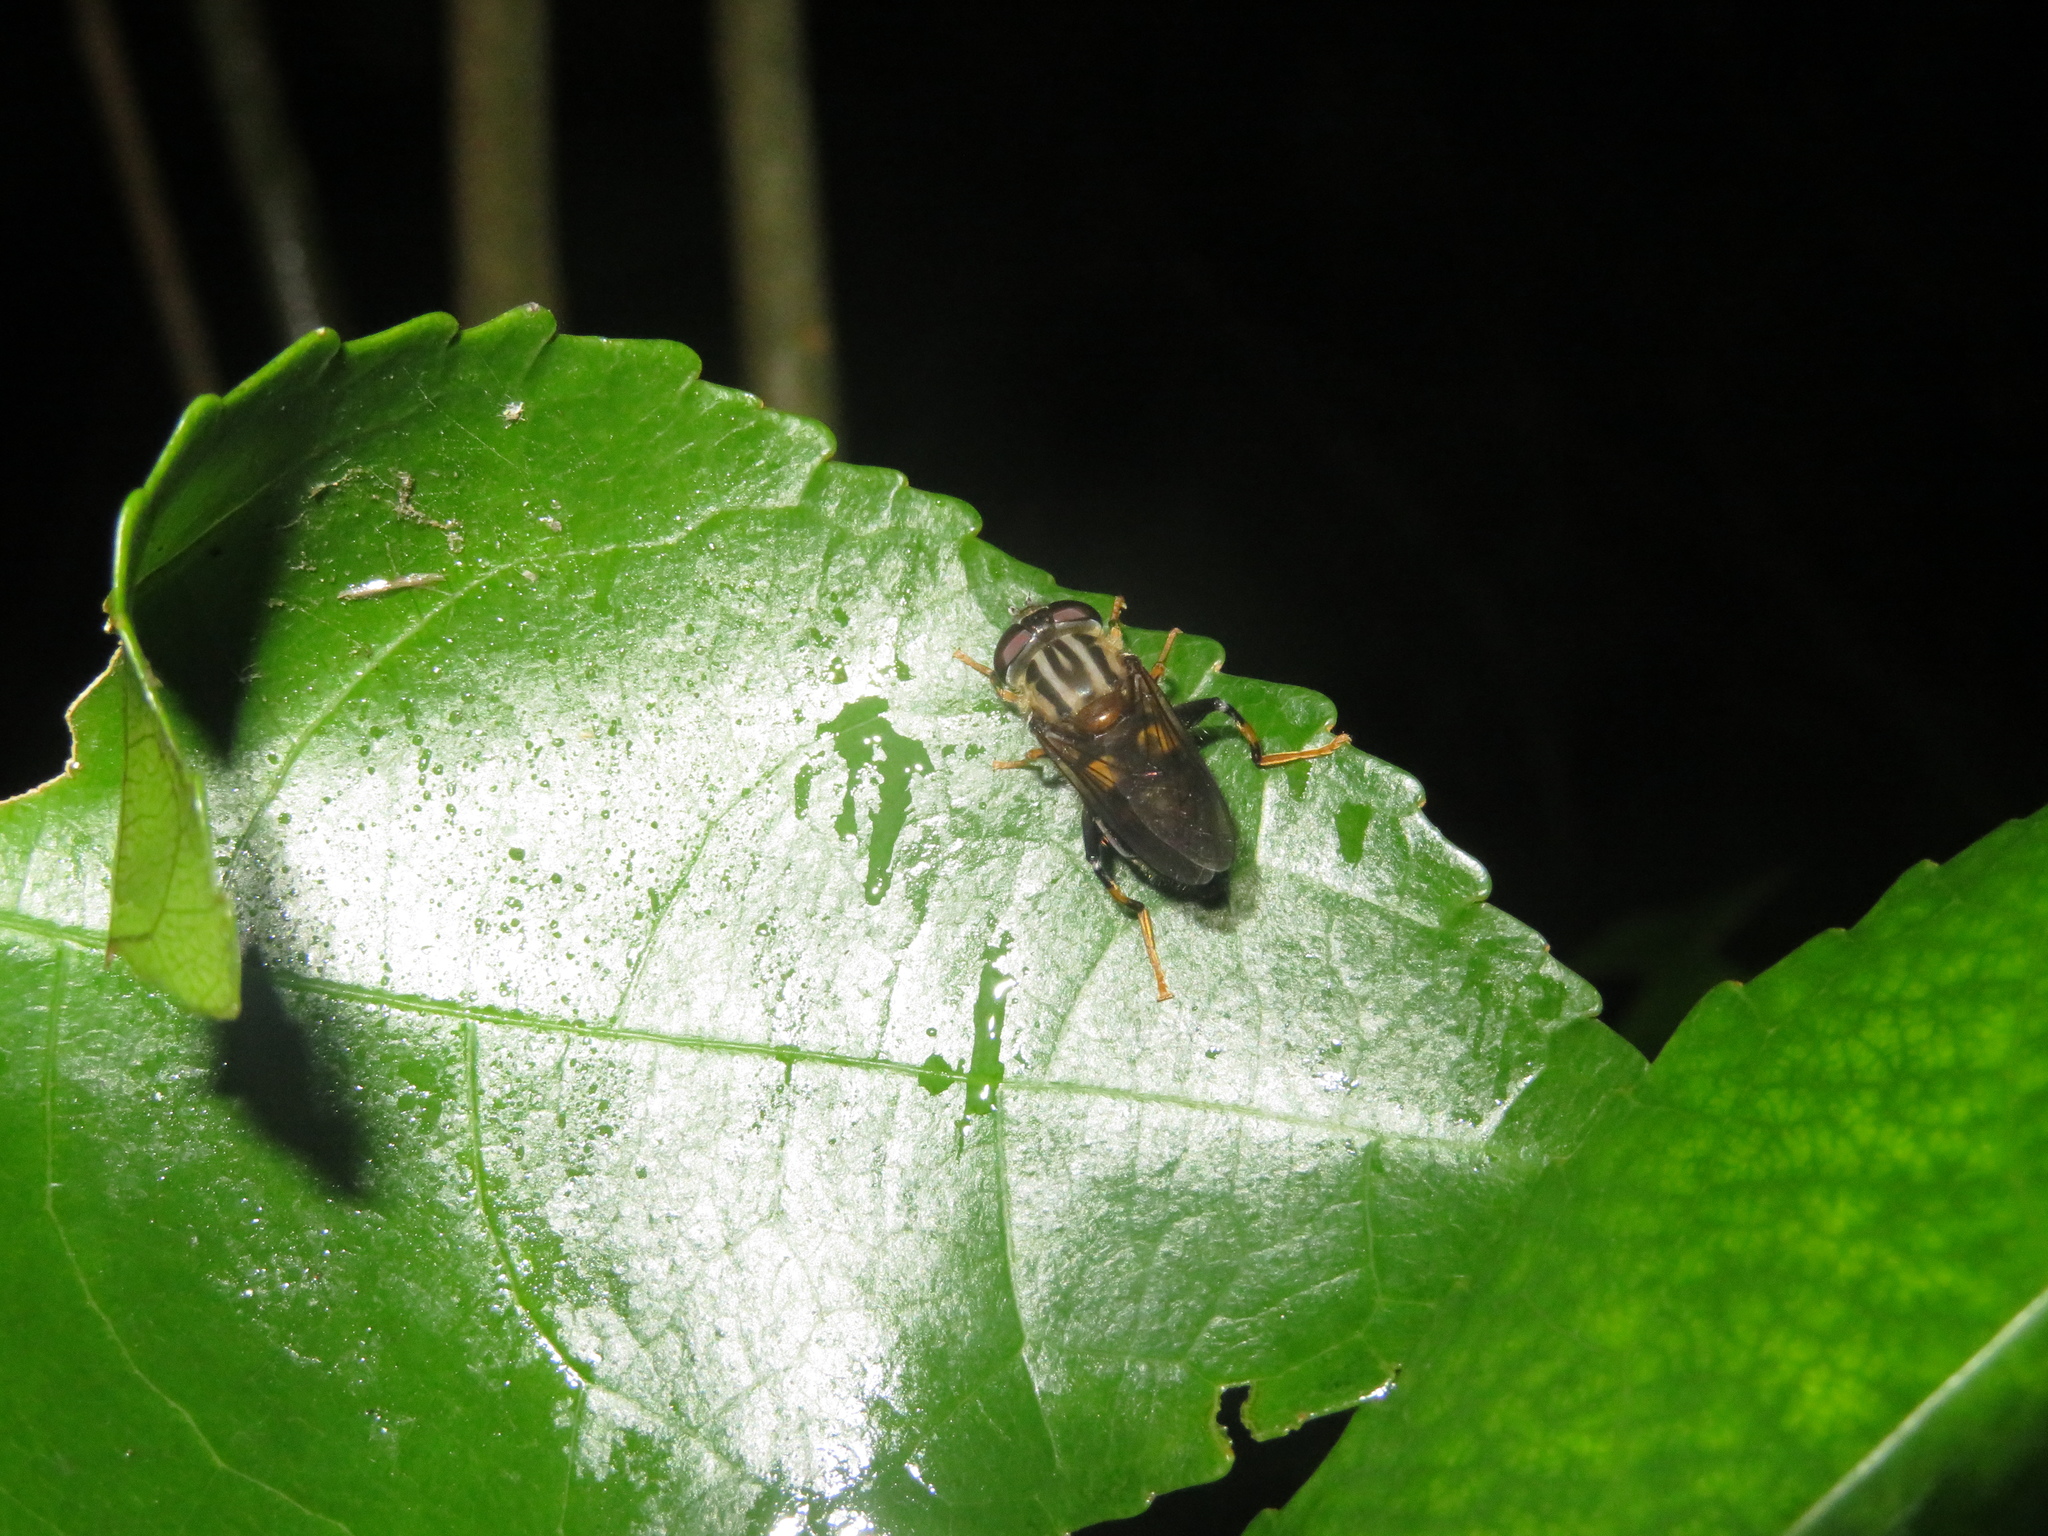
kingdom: Animalia
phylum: Arthropoda
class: Insecta
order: Diptera
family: Syrphidae
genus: Helophilus
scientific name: Helophilus antipodus
